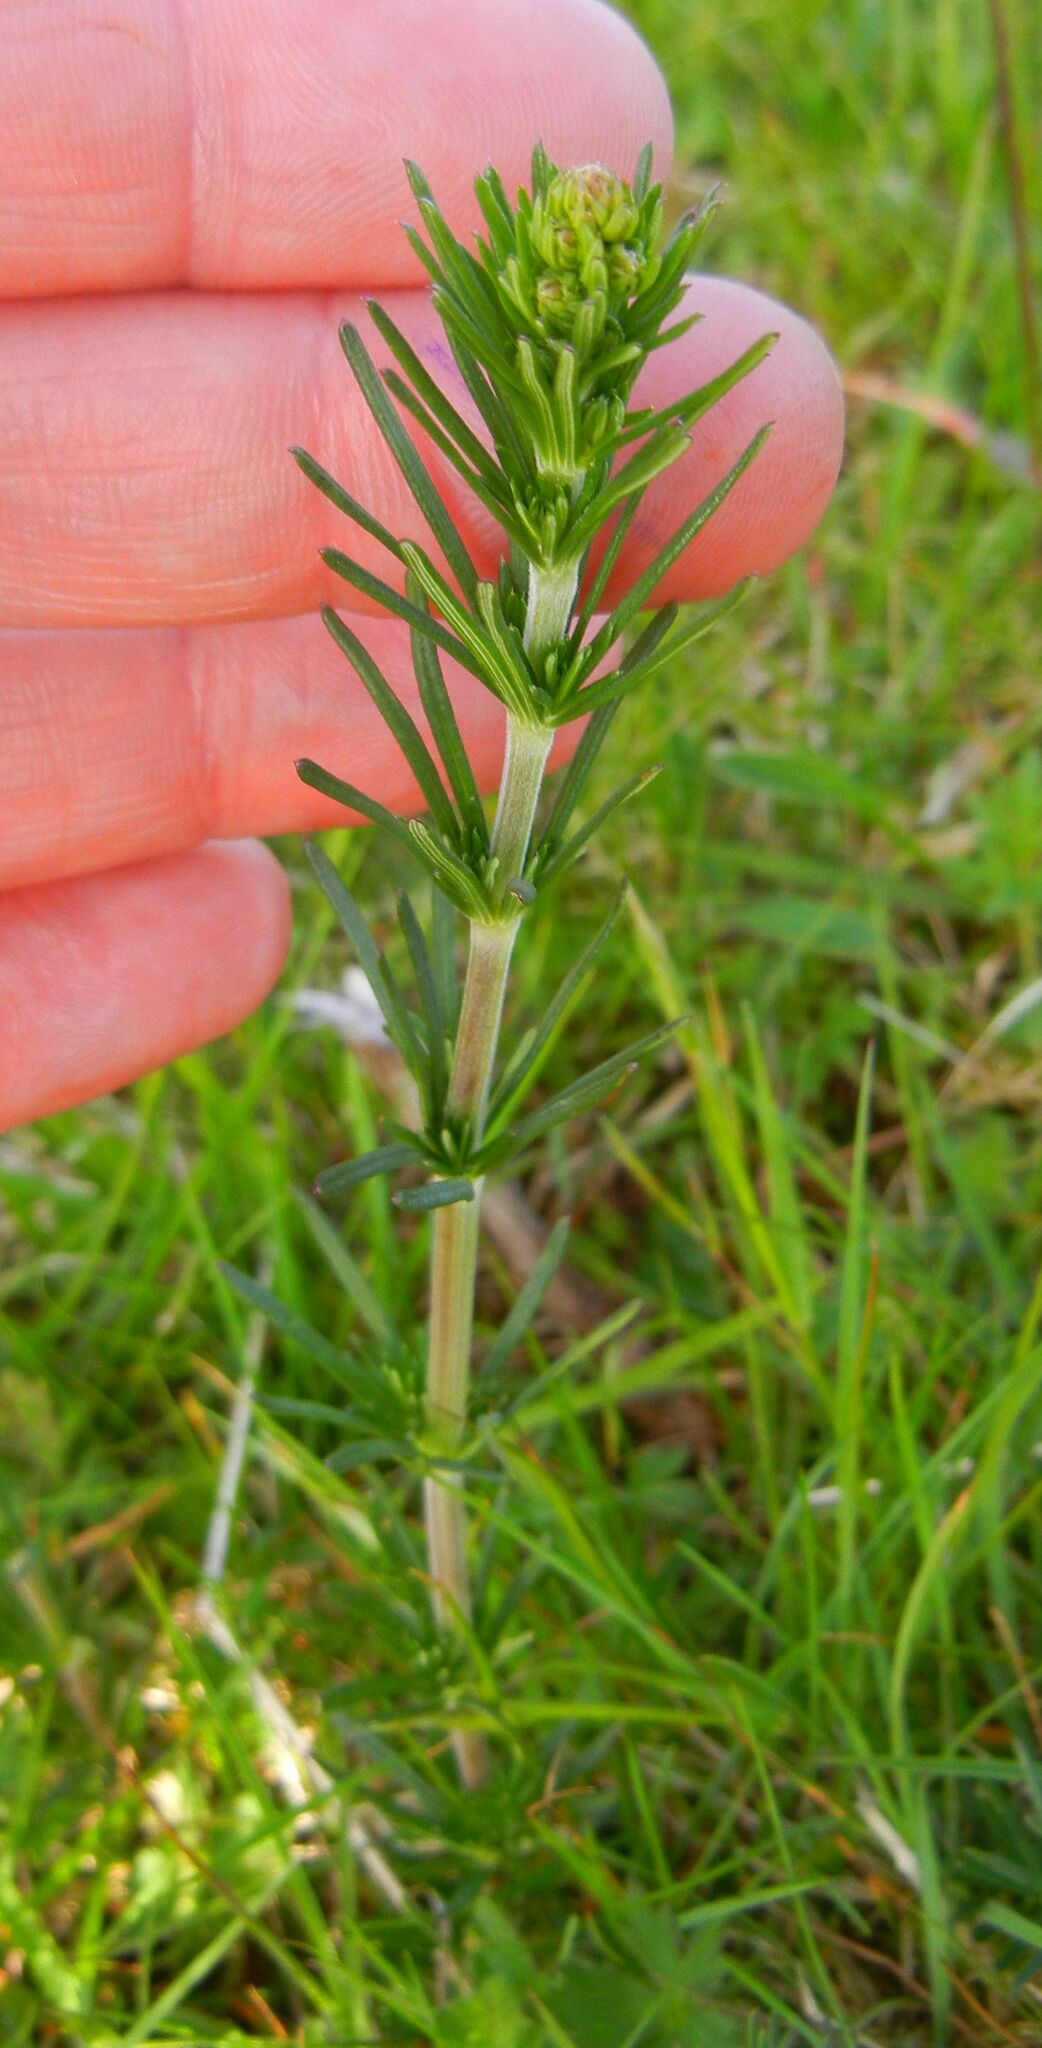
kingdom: Plantae
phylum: Tracheophyta
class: Magnoliopsida
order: Gentianales
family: Rubiaceae
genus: Galium
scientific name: Galium verum
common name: Lady's bedstraw
